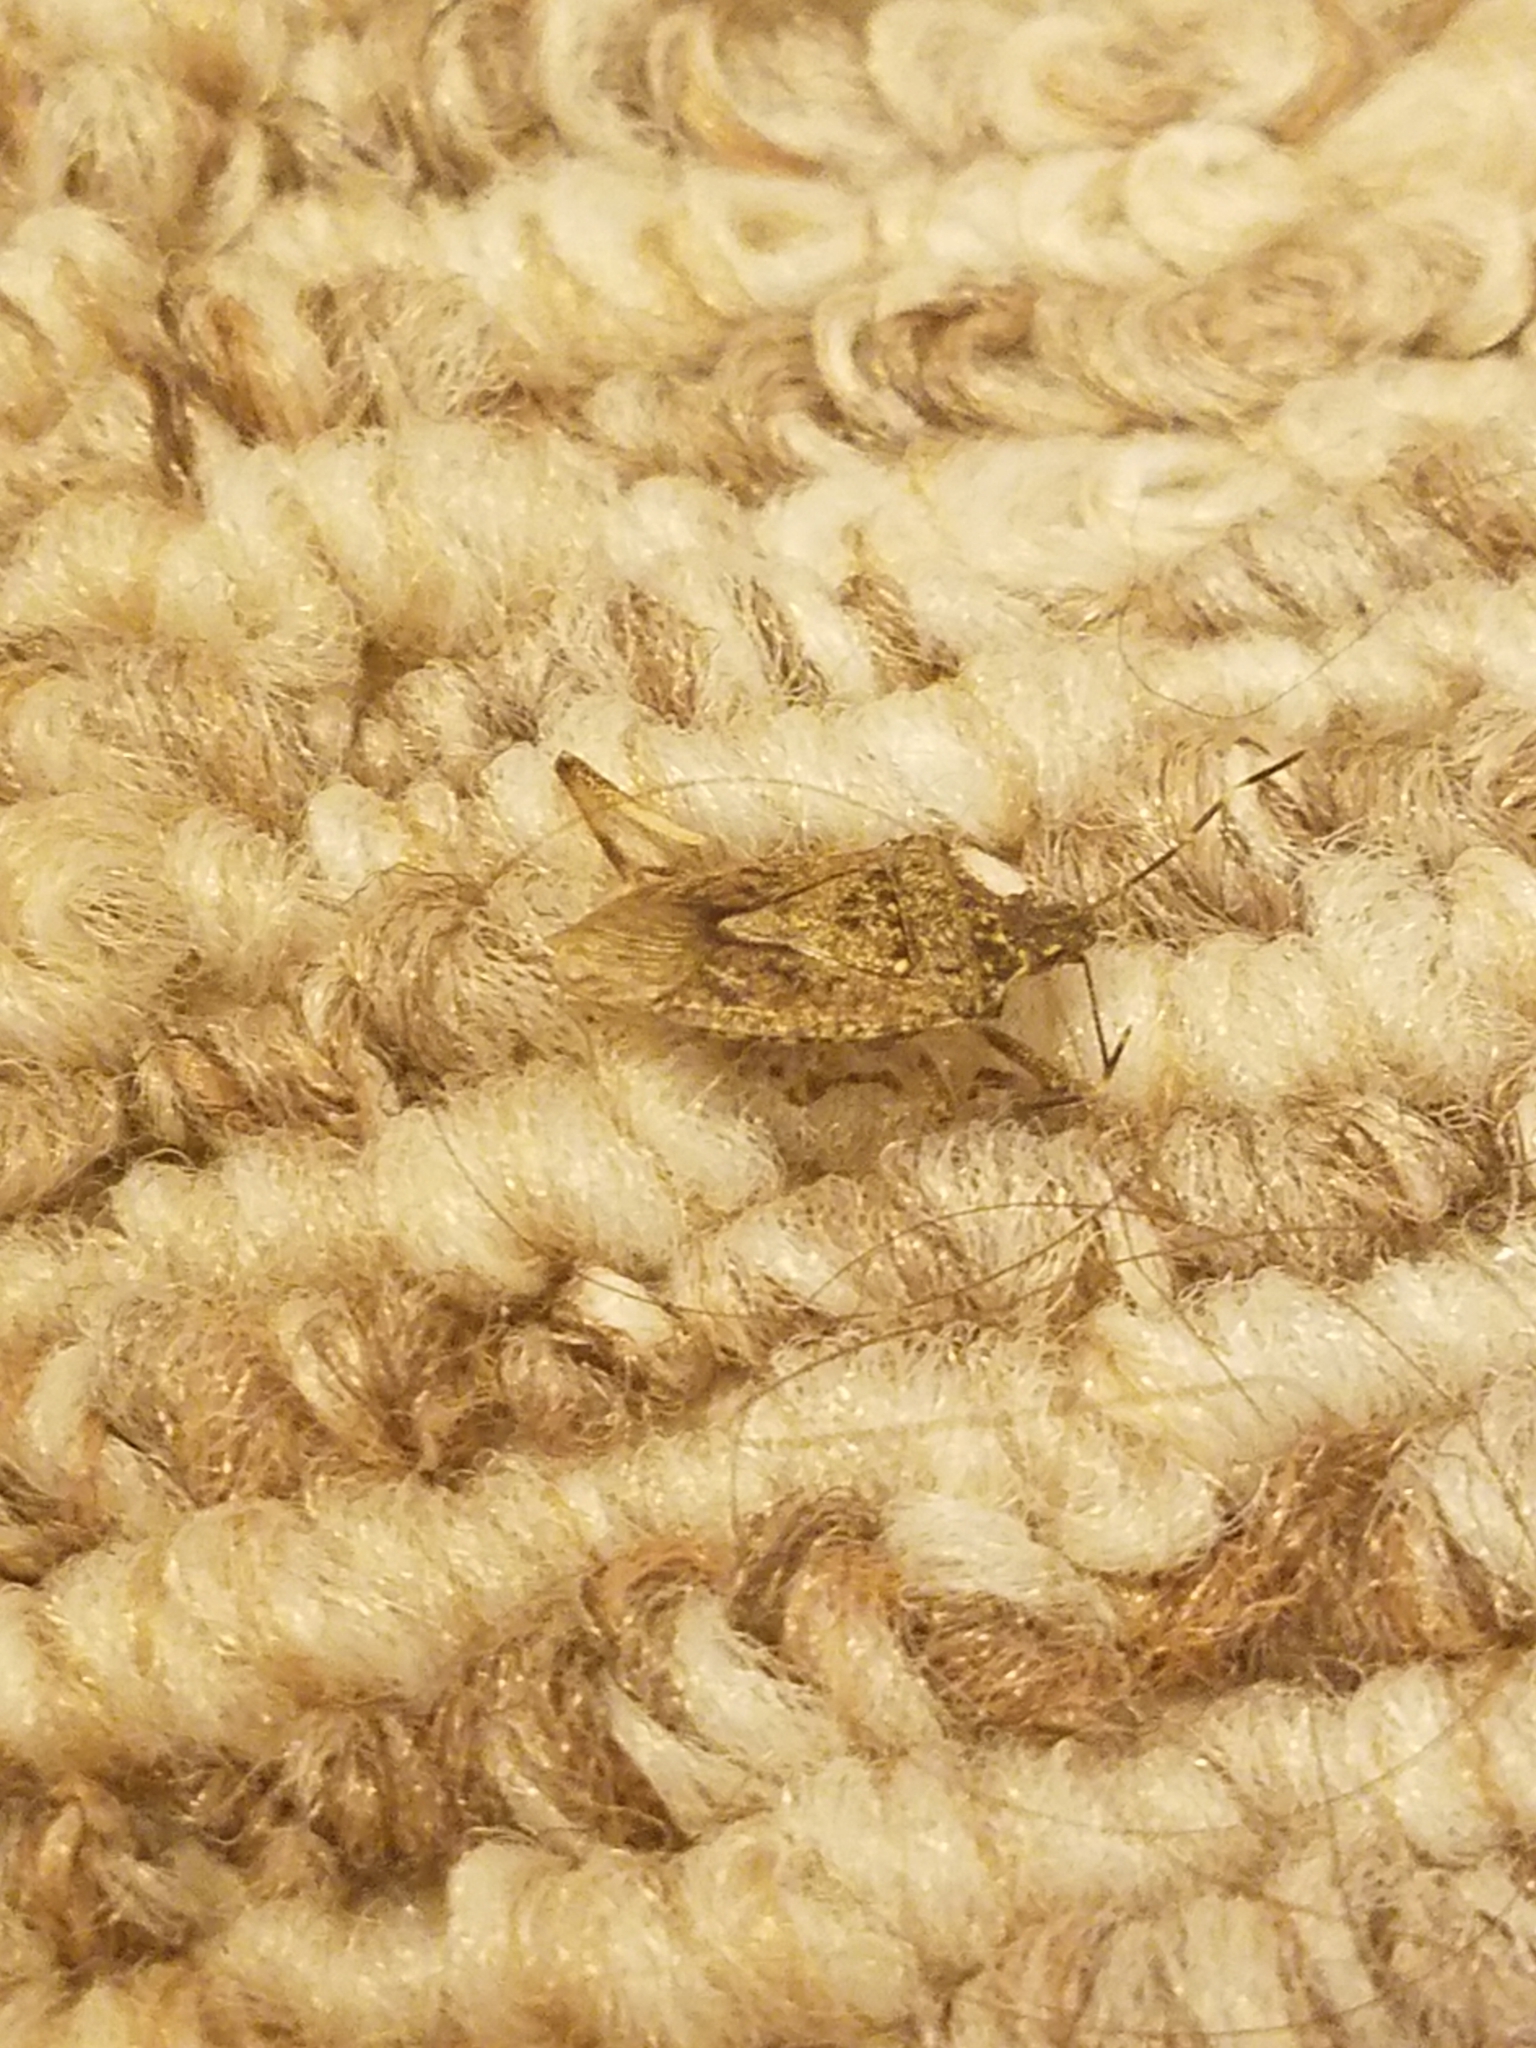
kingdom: Animalia
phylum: Arthropoda
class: Insecta
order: Hemiptera
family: Pentatomidae
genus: Halyomorpha
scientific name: Halyomorpha halys
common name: Brown marmorated stink bug
